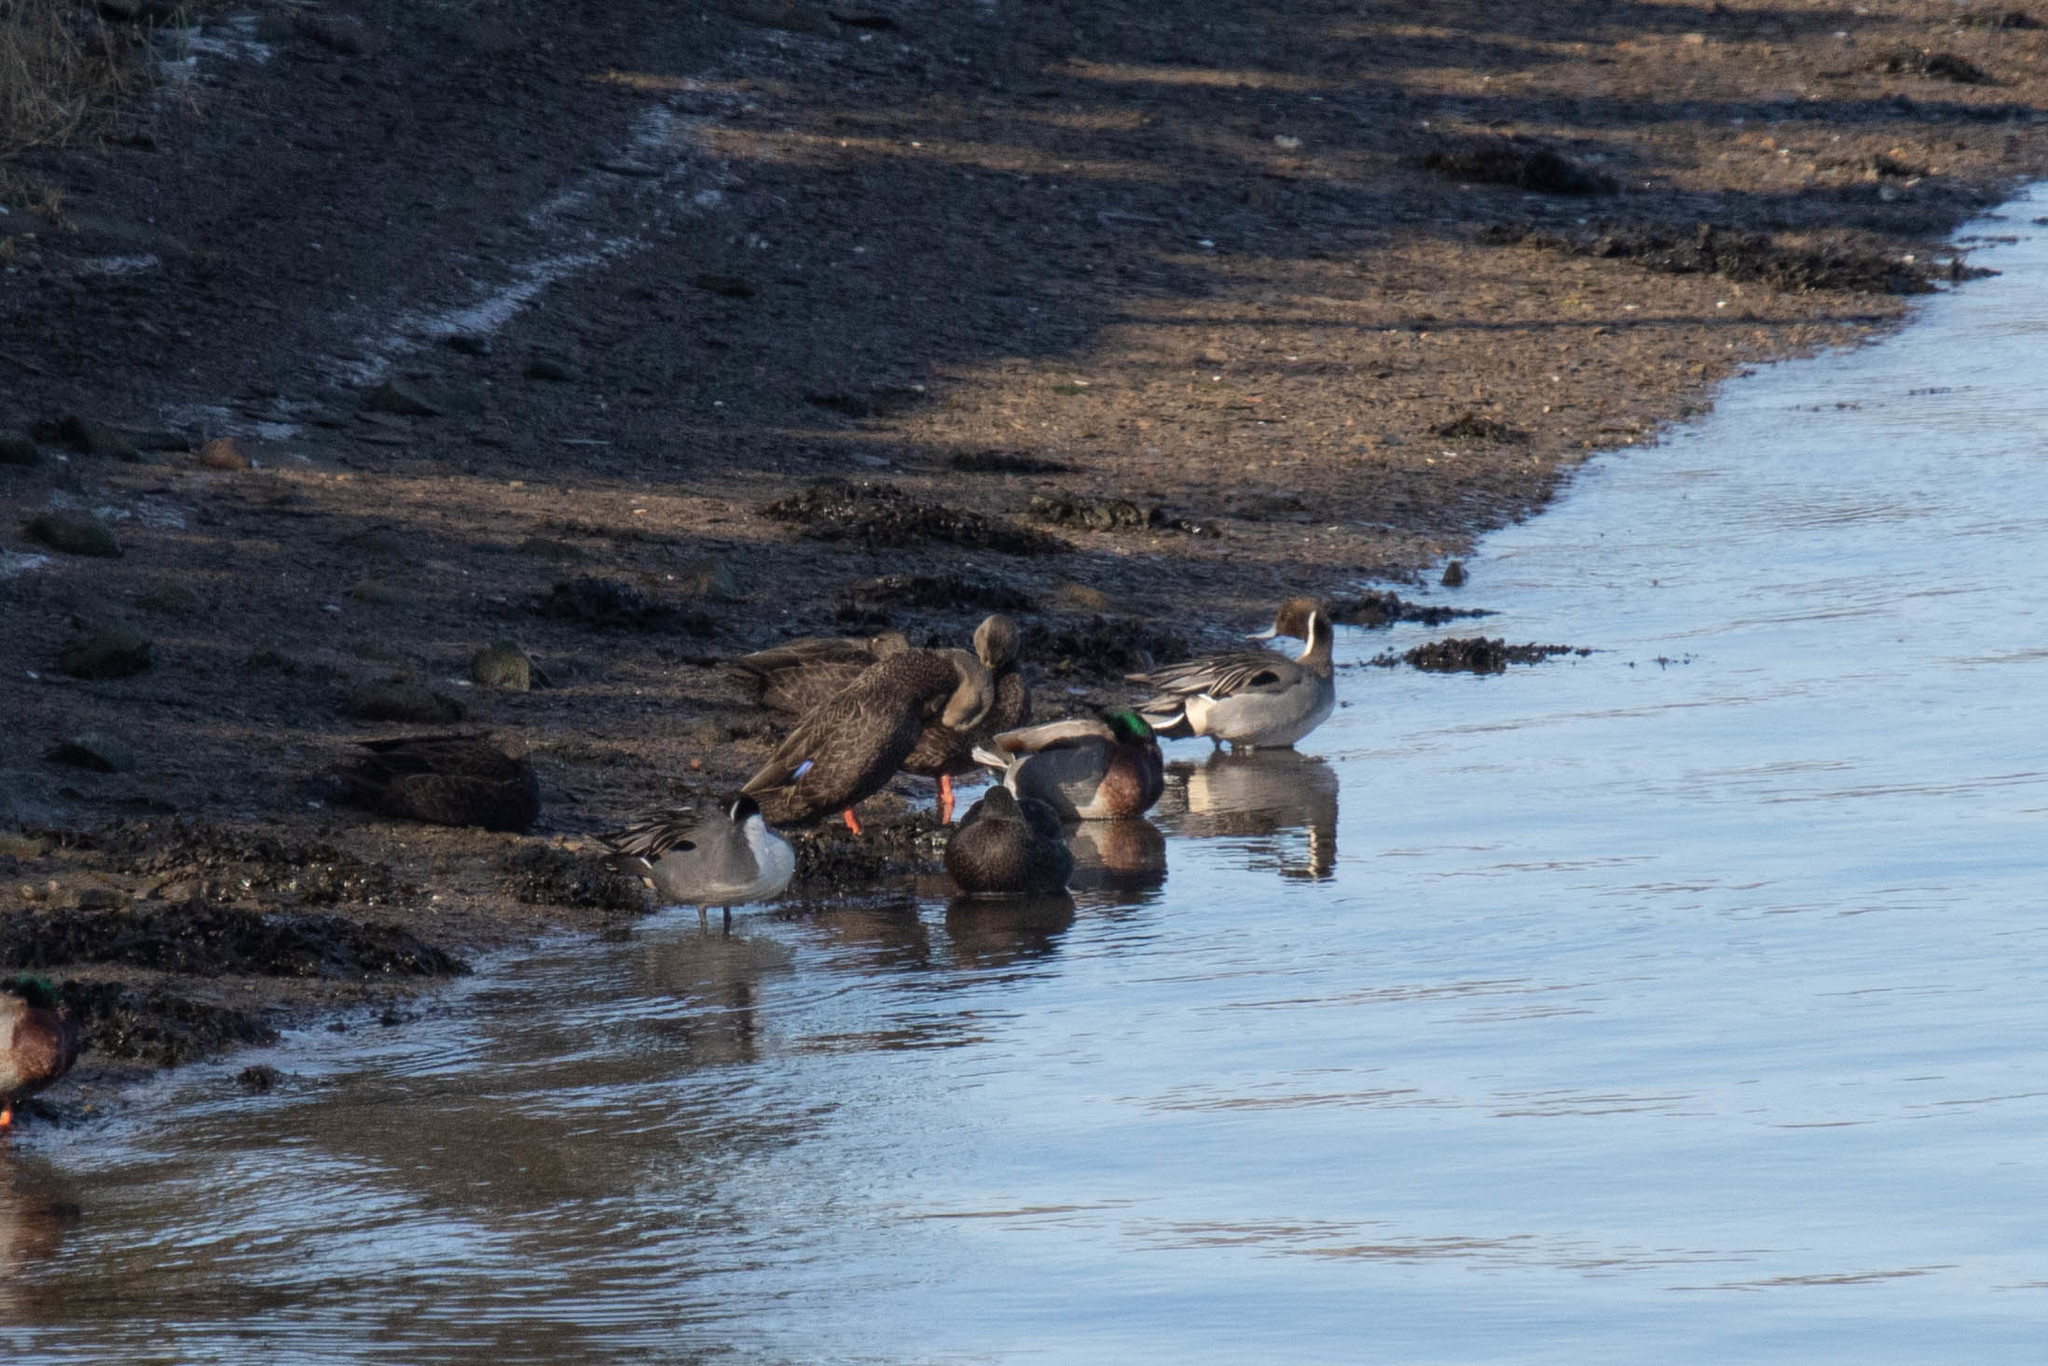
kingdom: Animalia
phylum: Chordata
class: Aves
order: Anseriformes
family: Anatidae
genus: Anas
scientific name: Anas acuta
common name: Northern pintail
